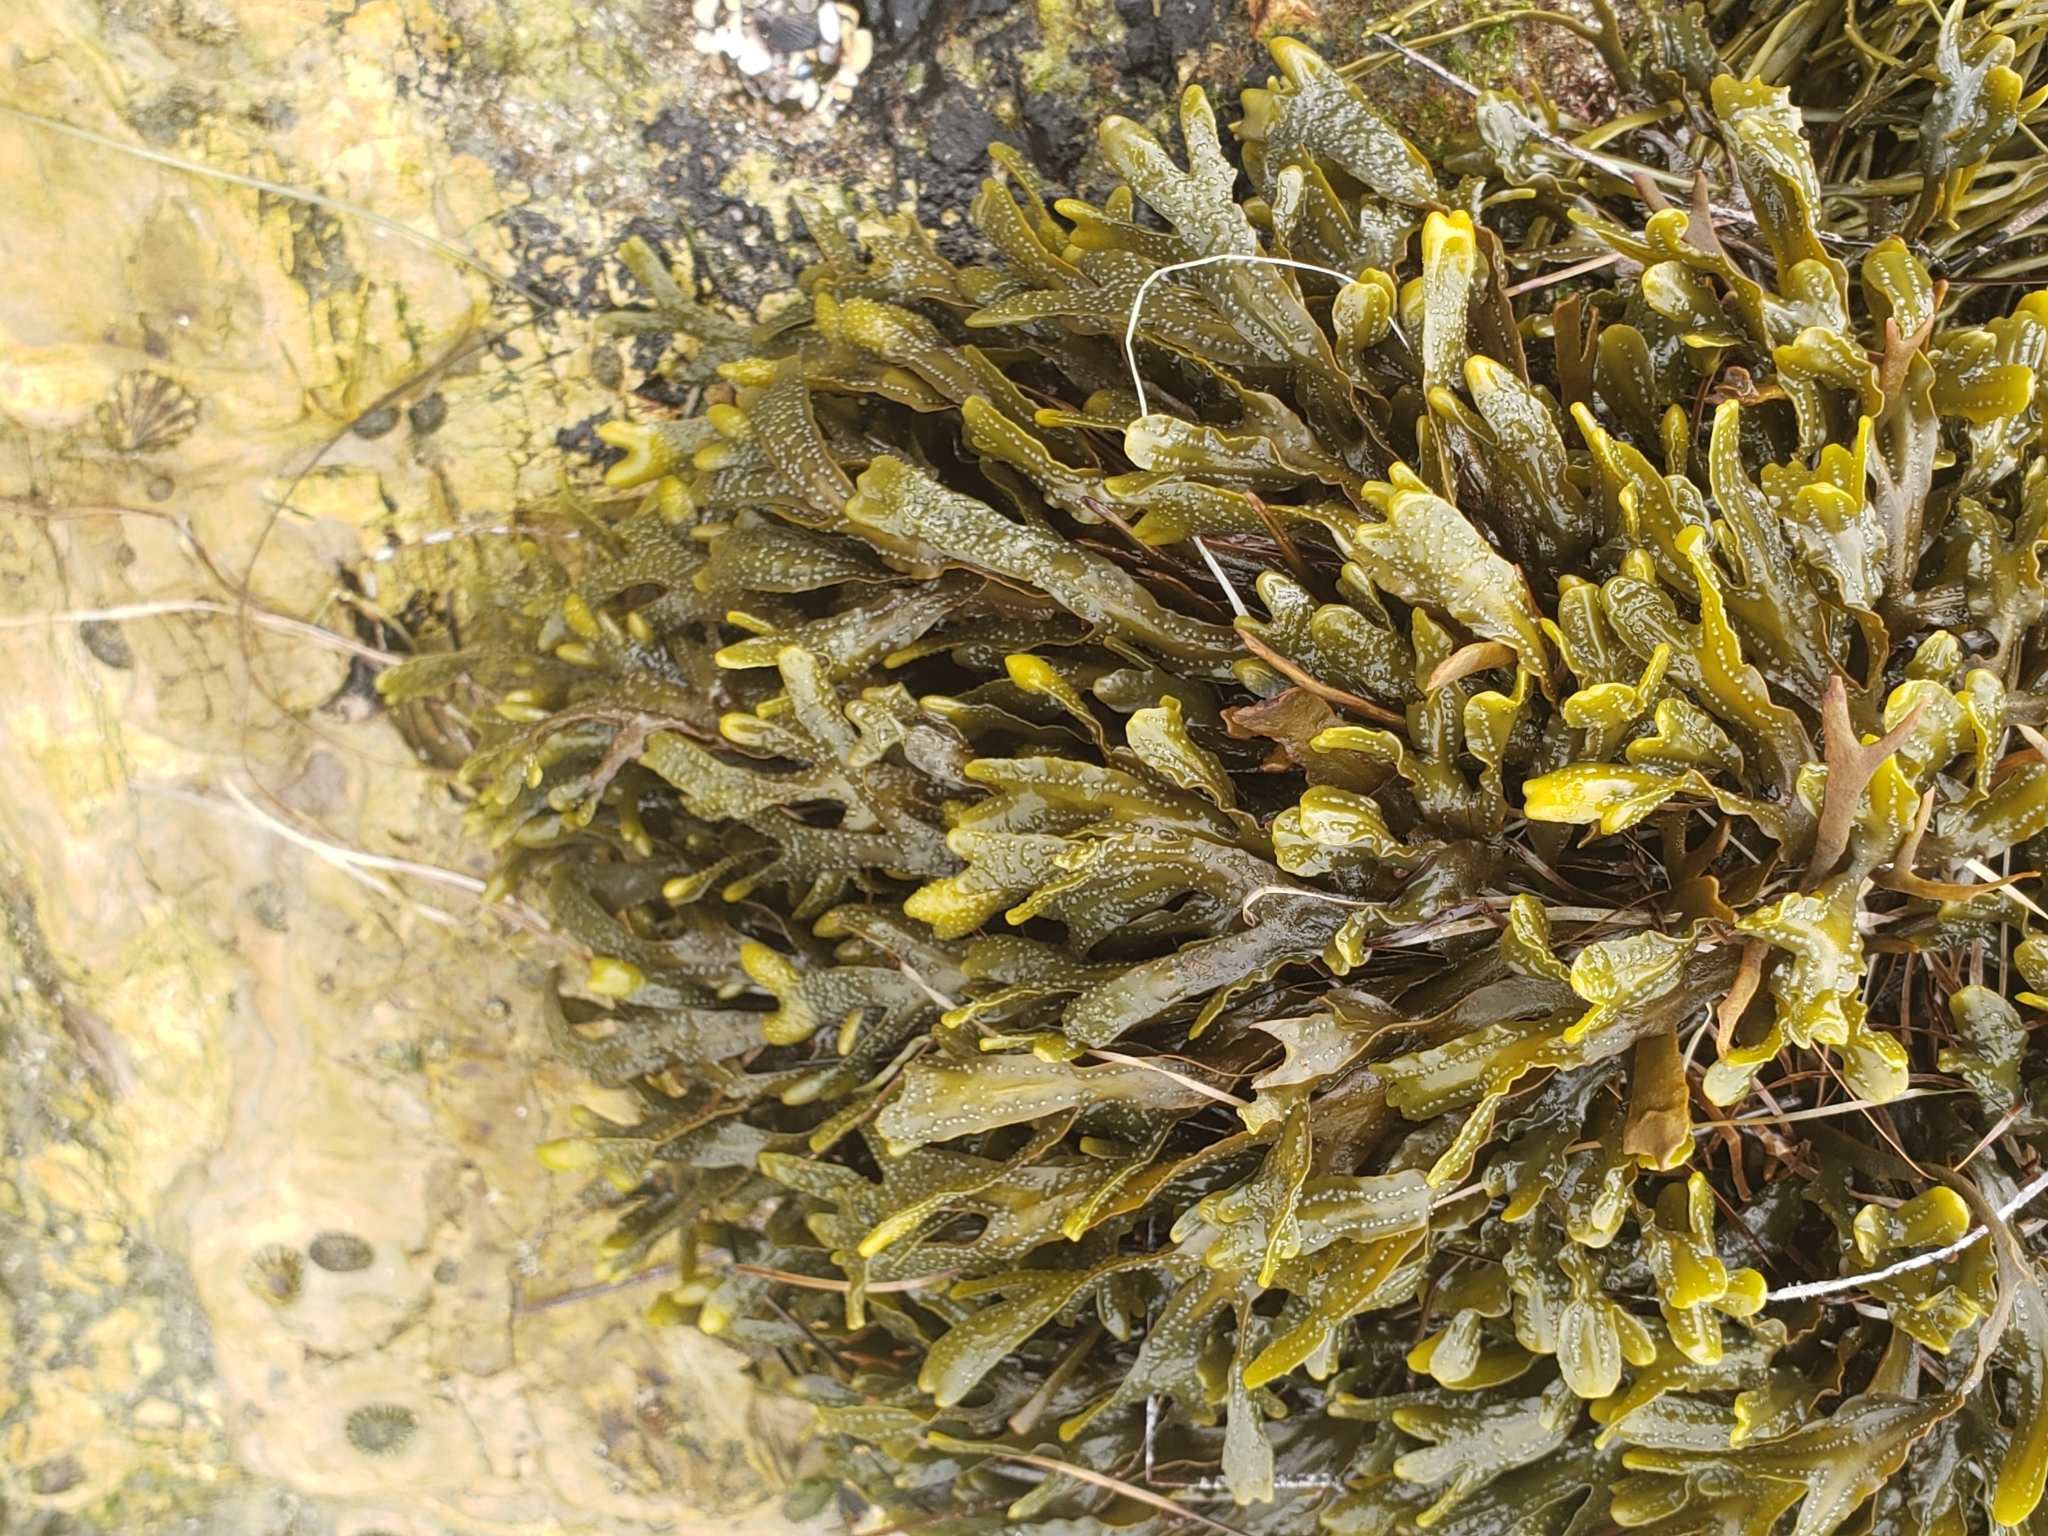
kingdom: Chromista
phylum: Ochrophyta
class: Phaeophyceae
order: Fucales
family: Fucaceae
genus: Pelvetiopsis
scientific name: Pelvetiopsis
